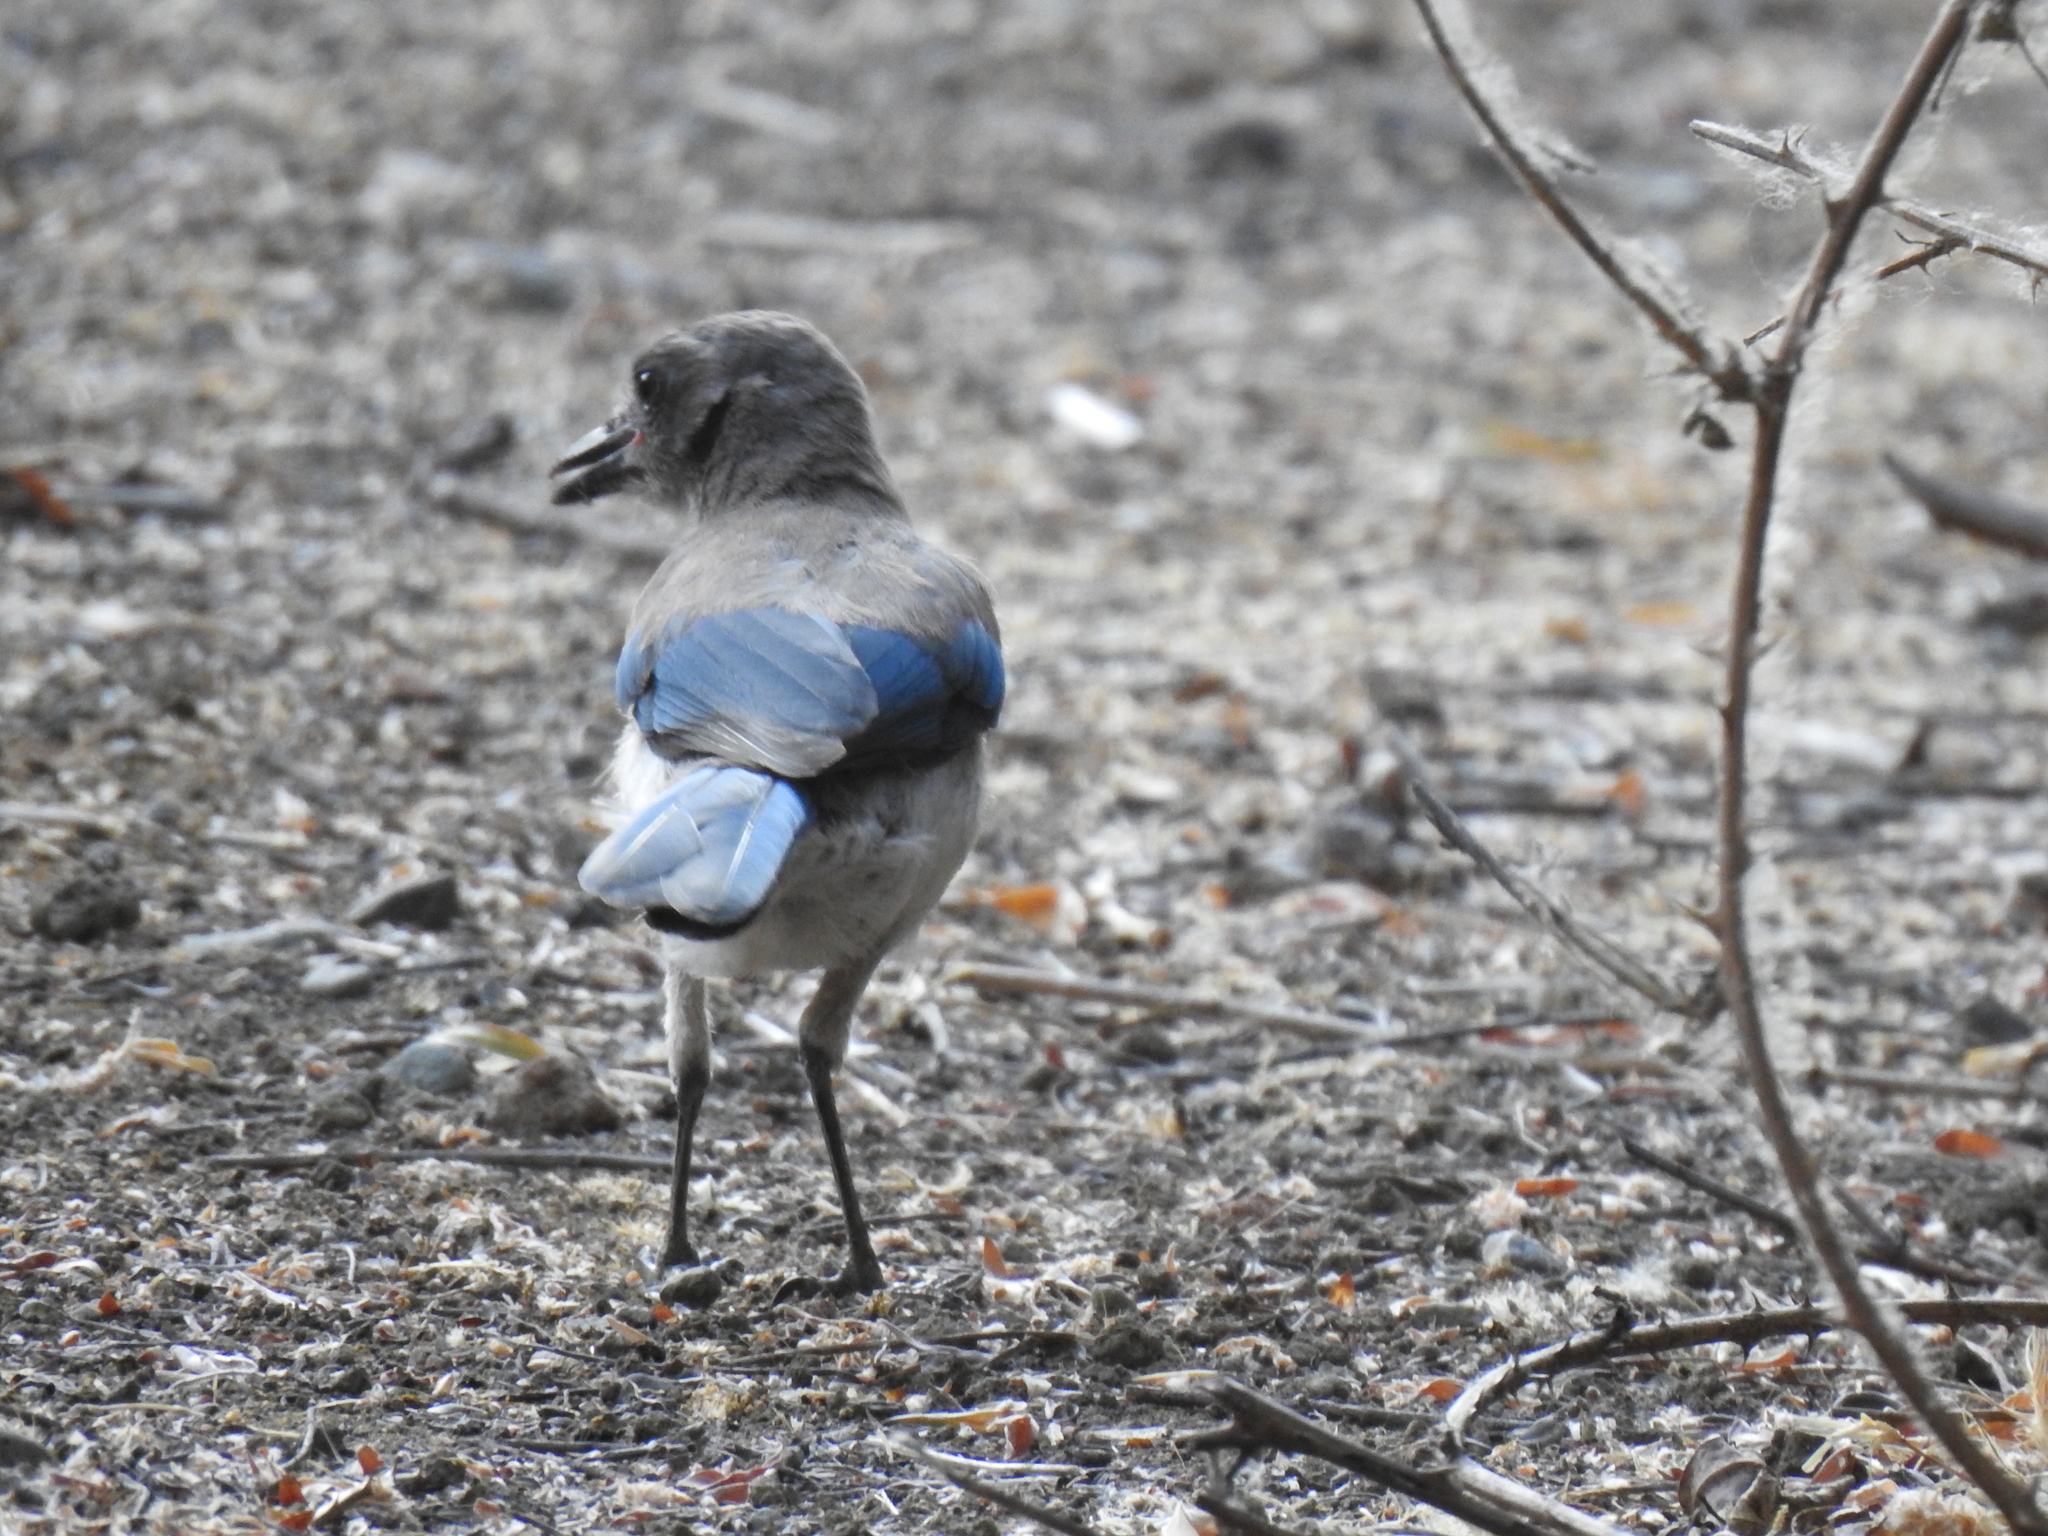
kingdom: Animalia
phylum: Chordata
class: Aves
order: Passeriformes
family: Corvidae
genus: Aphelocoma
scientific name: Aphelocoma californica
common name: California scrub-jay
